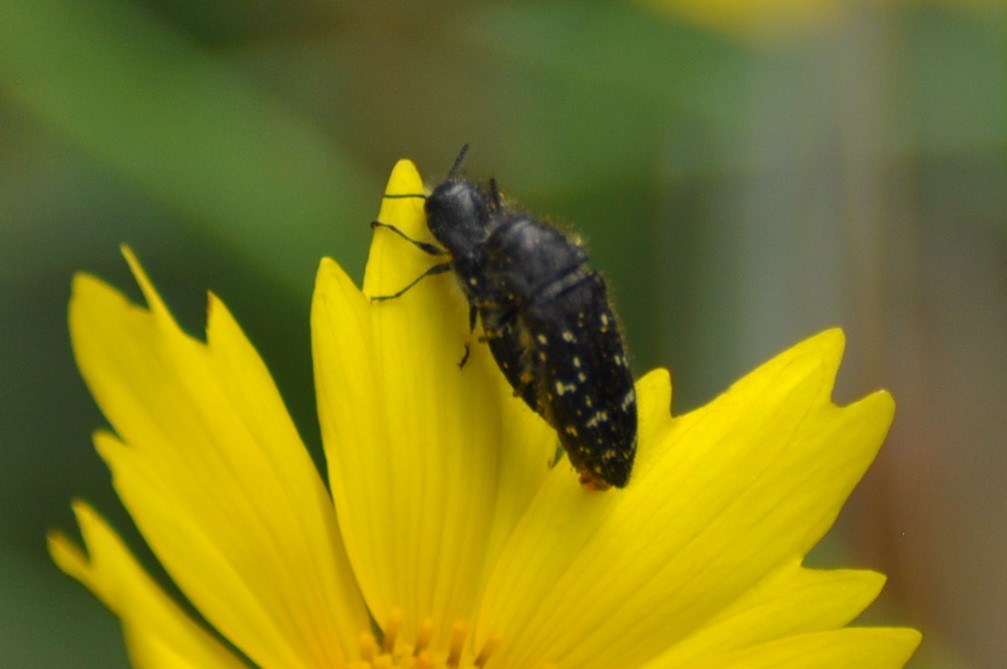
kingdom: Animalia
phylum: Arthropoda
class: Insecta
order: Coleoptera
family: Buprestidae
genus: Acmaeodera
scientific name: Acmaeodera ornatoides
